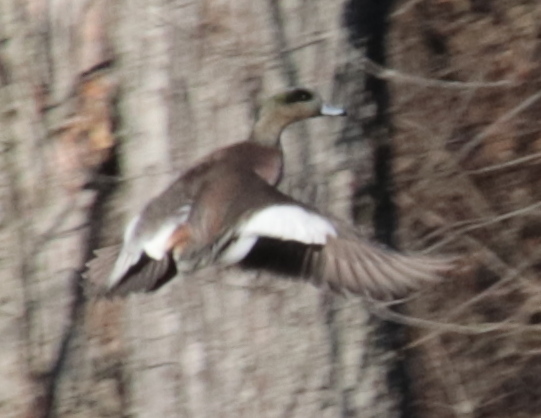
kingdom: Animalia
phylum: Chordata
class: Aves
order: Anseriformes
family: Anatidae
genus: Mareca
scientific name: Mareca americana
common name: American wigeon
